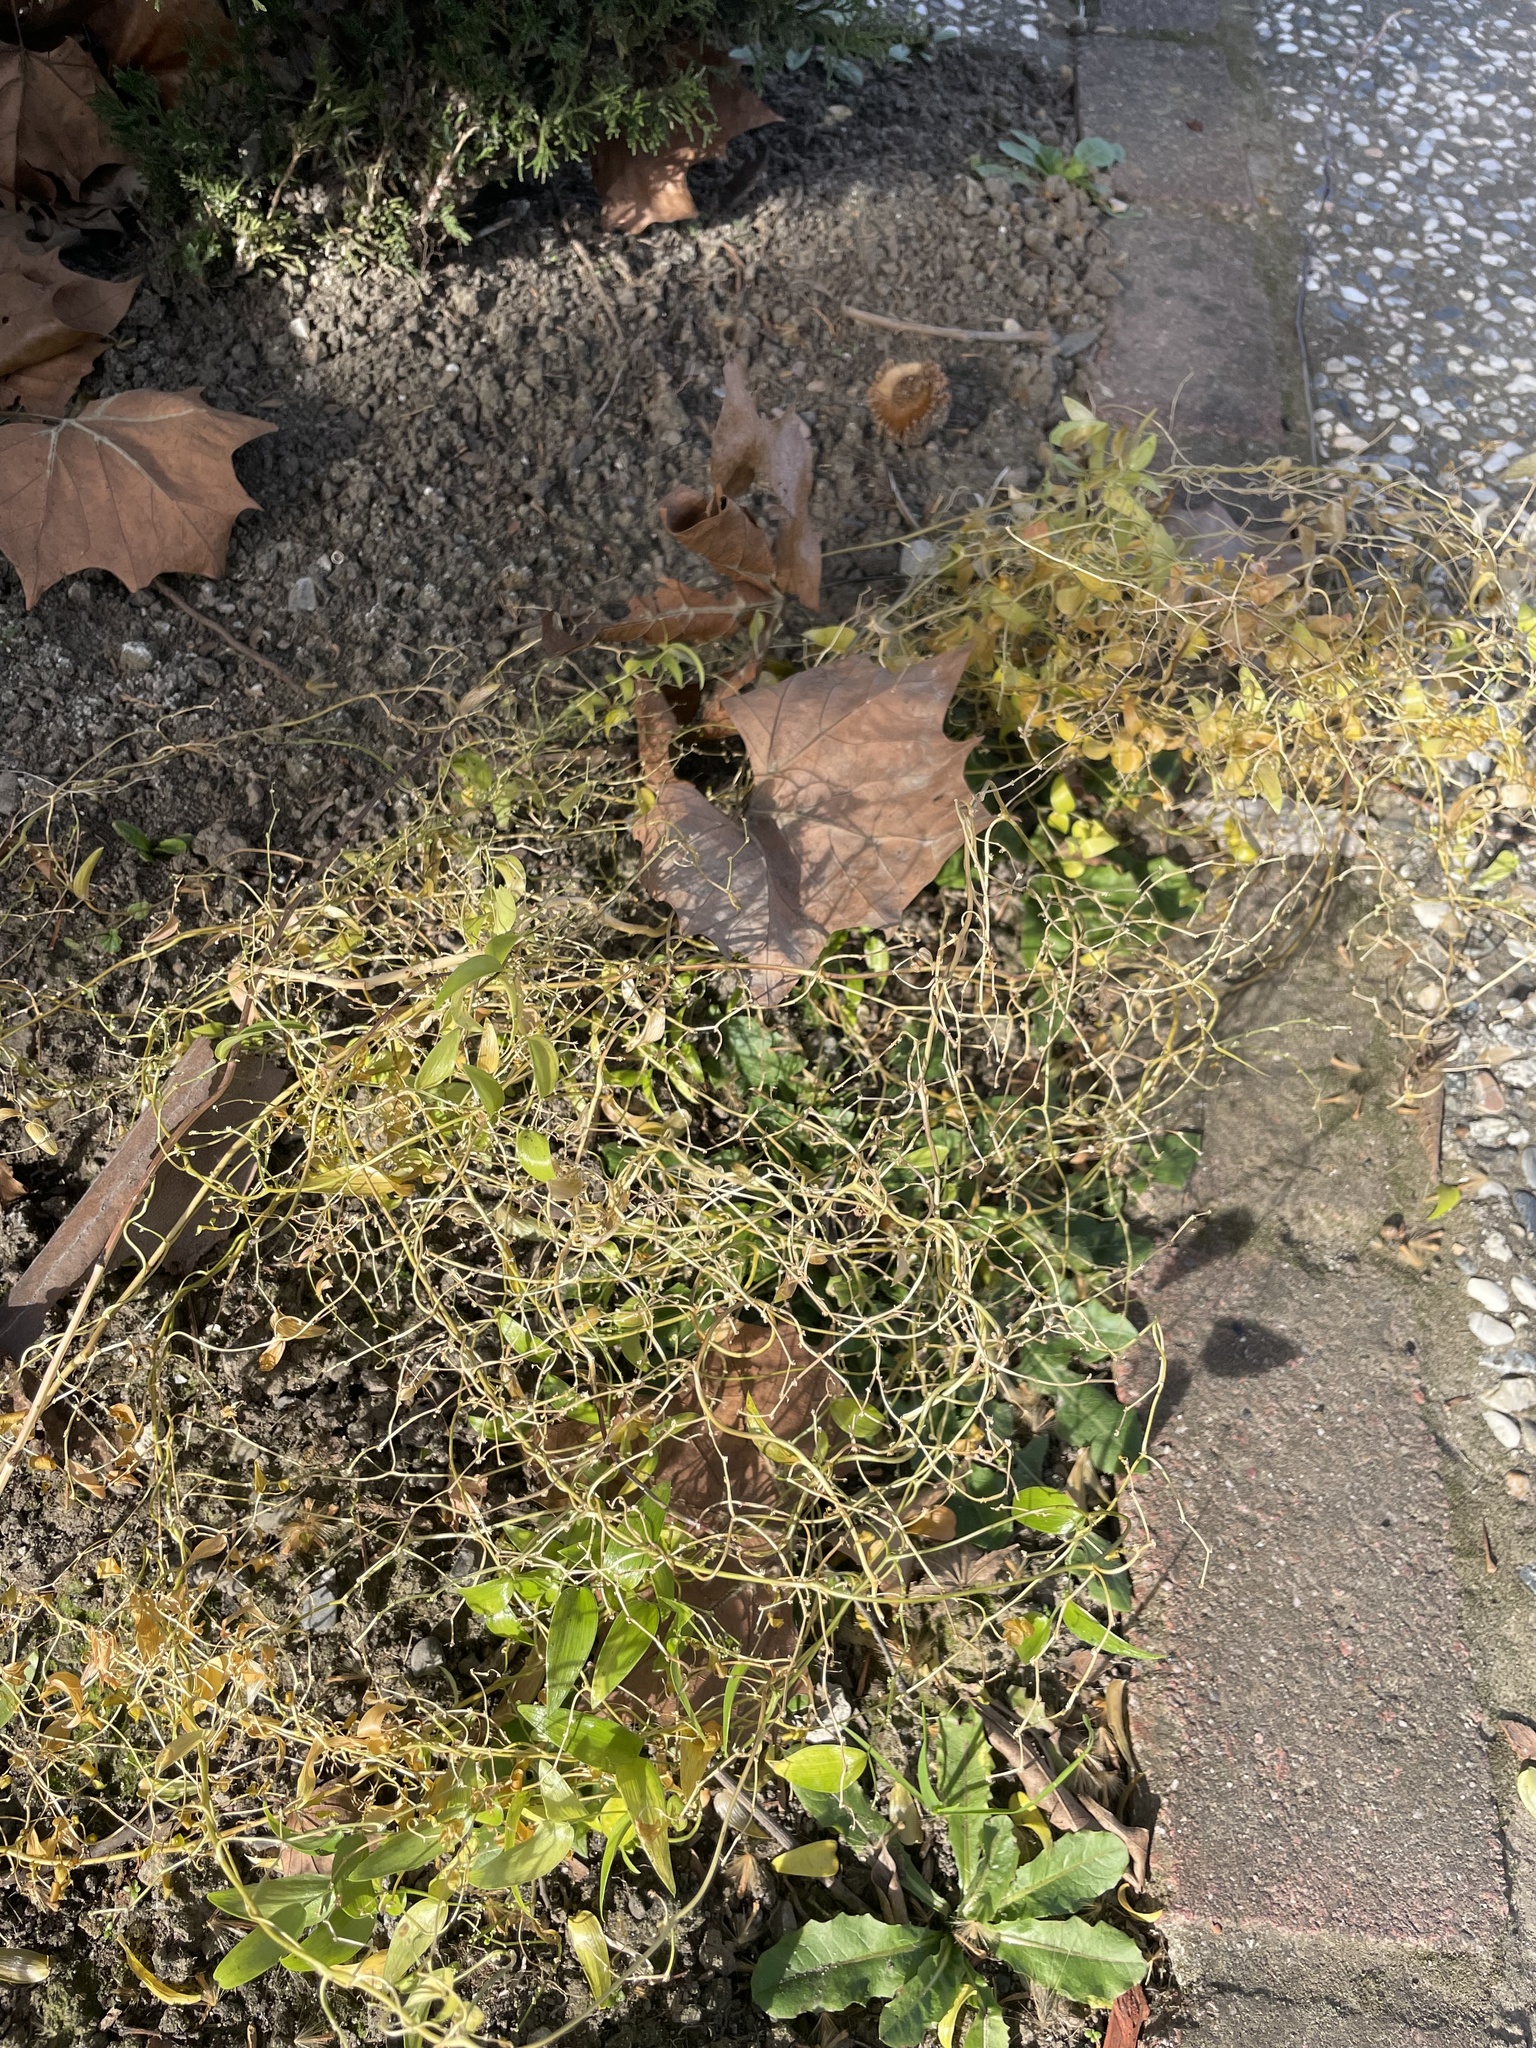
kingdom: Plantae
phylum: Tracheophyta
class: Liliopsida
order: Asparagales
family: Asparagaceae
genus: Asparagus
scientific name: Asparagus asparagoides
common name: African asparagus fern
